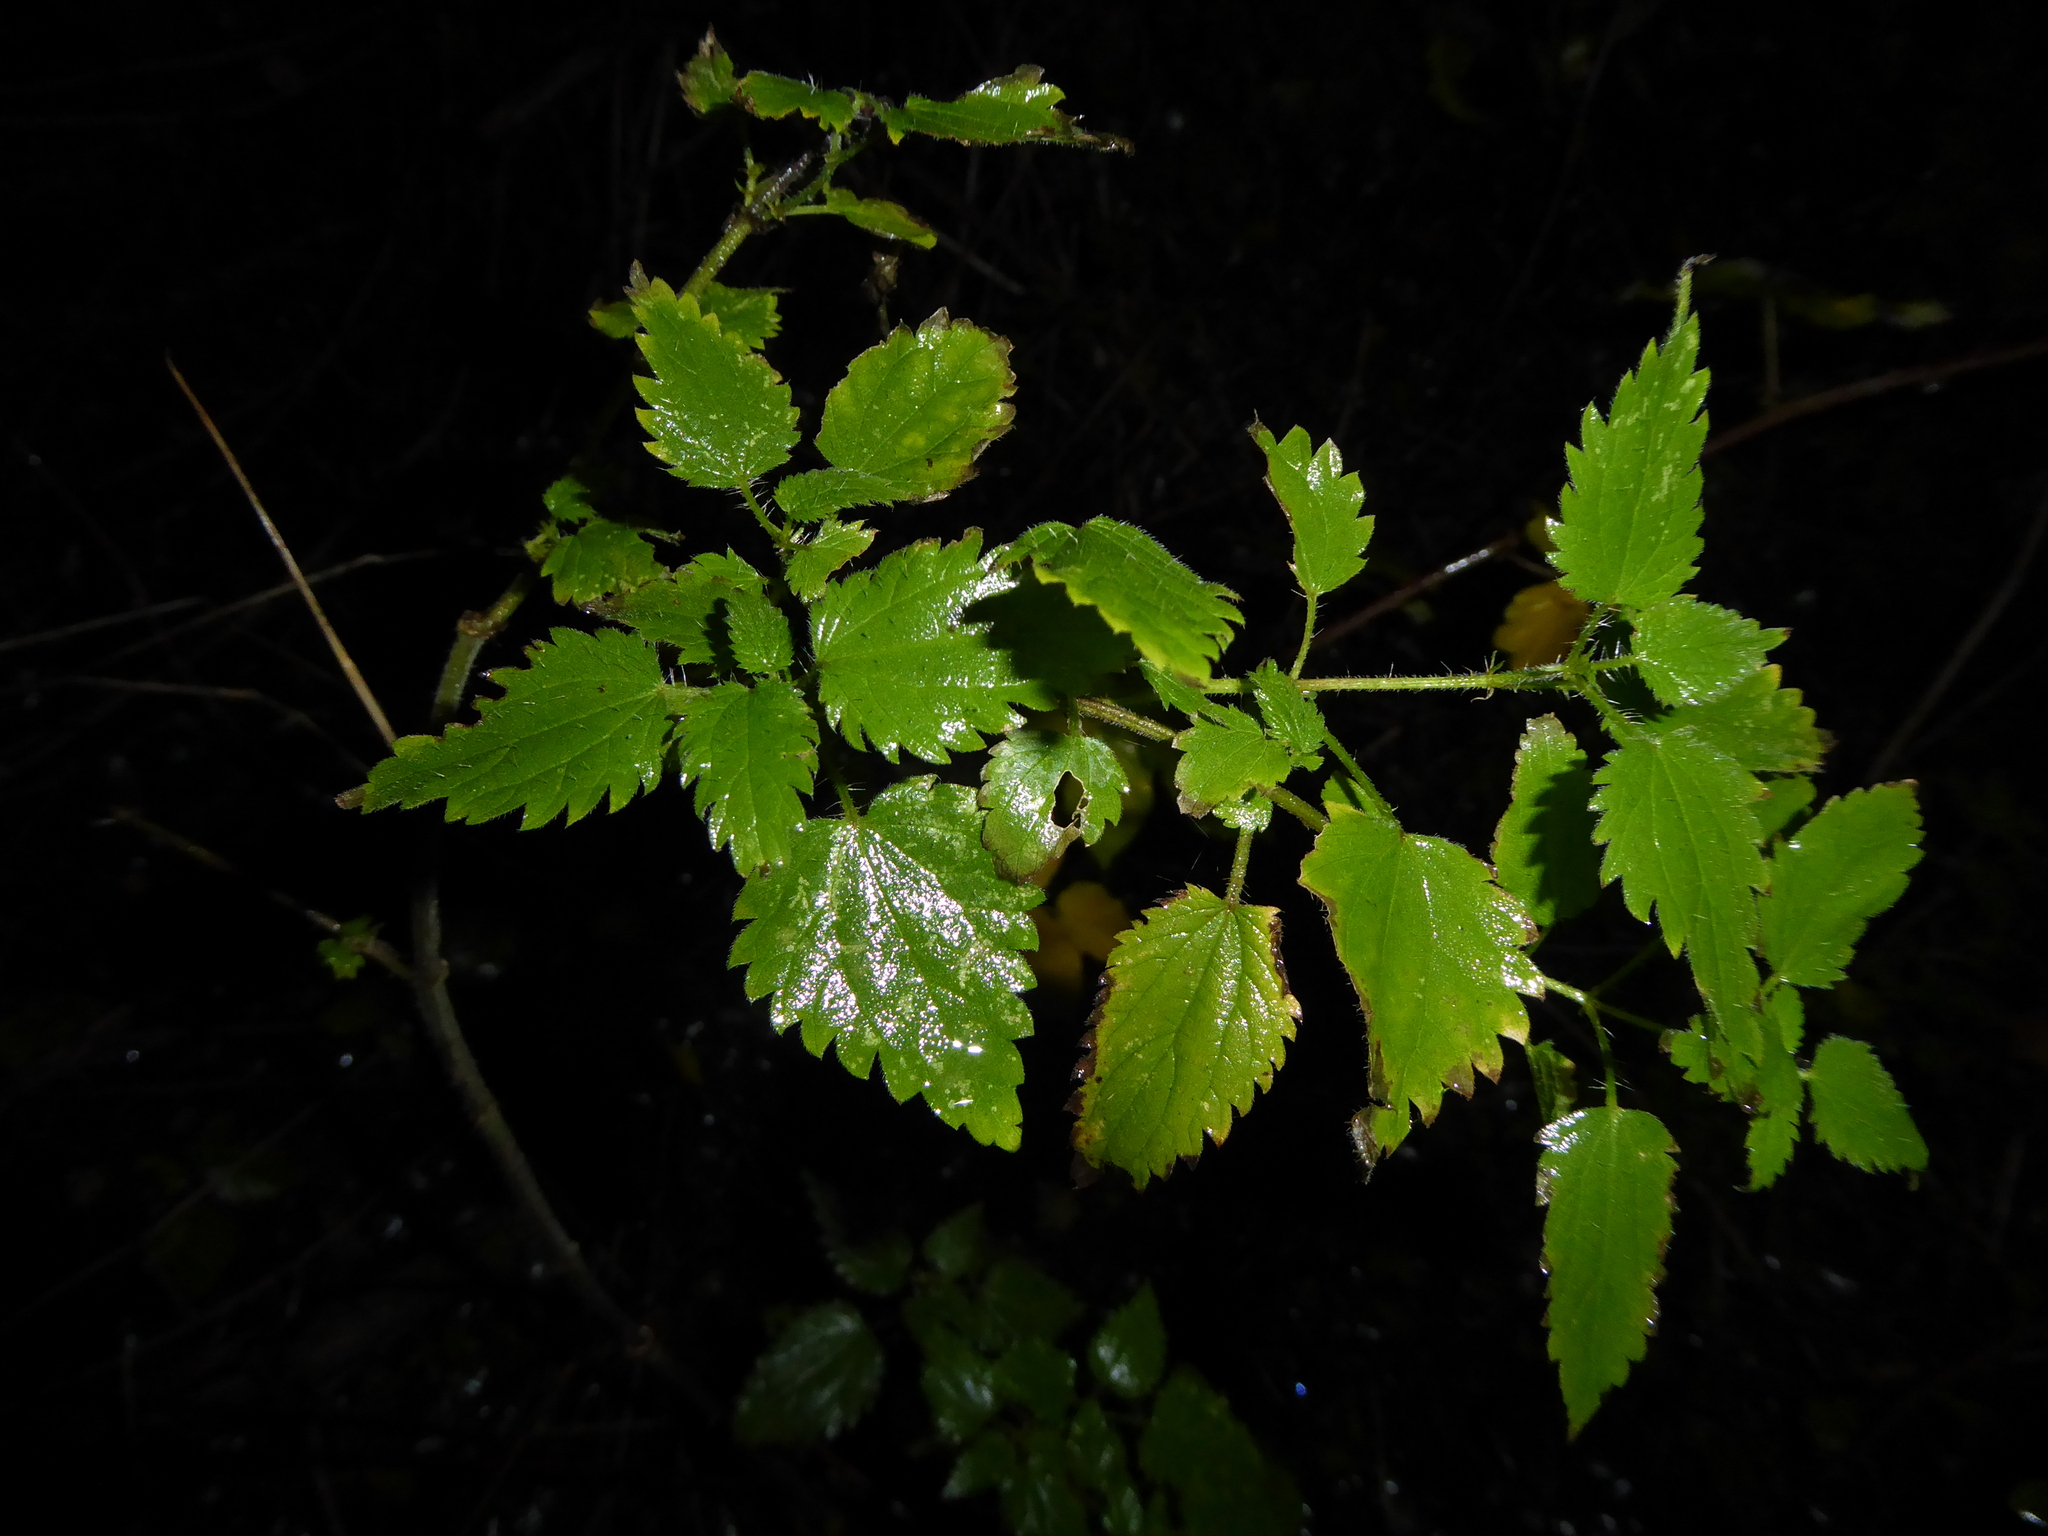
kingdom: Plantae
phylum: Tracheophyta
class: Magnoliopsida
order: Rosales
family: Urticaceae
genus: Urtica
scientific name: Urtica dioica
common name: Common nettle
